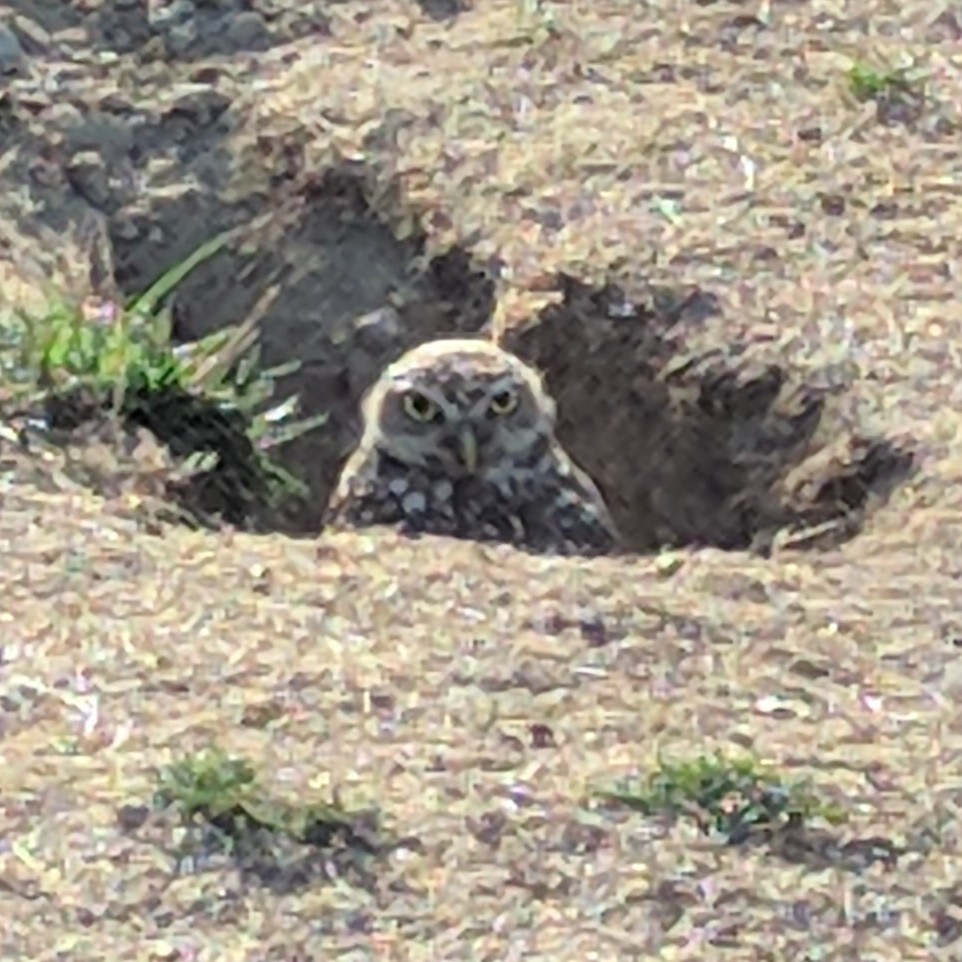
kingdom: Animalia
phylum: Chordata
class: Aves
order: Strigiformes
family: Strigidae
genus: Athene
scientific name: Athene cunicularia
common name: Burrowing owl
